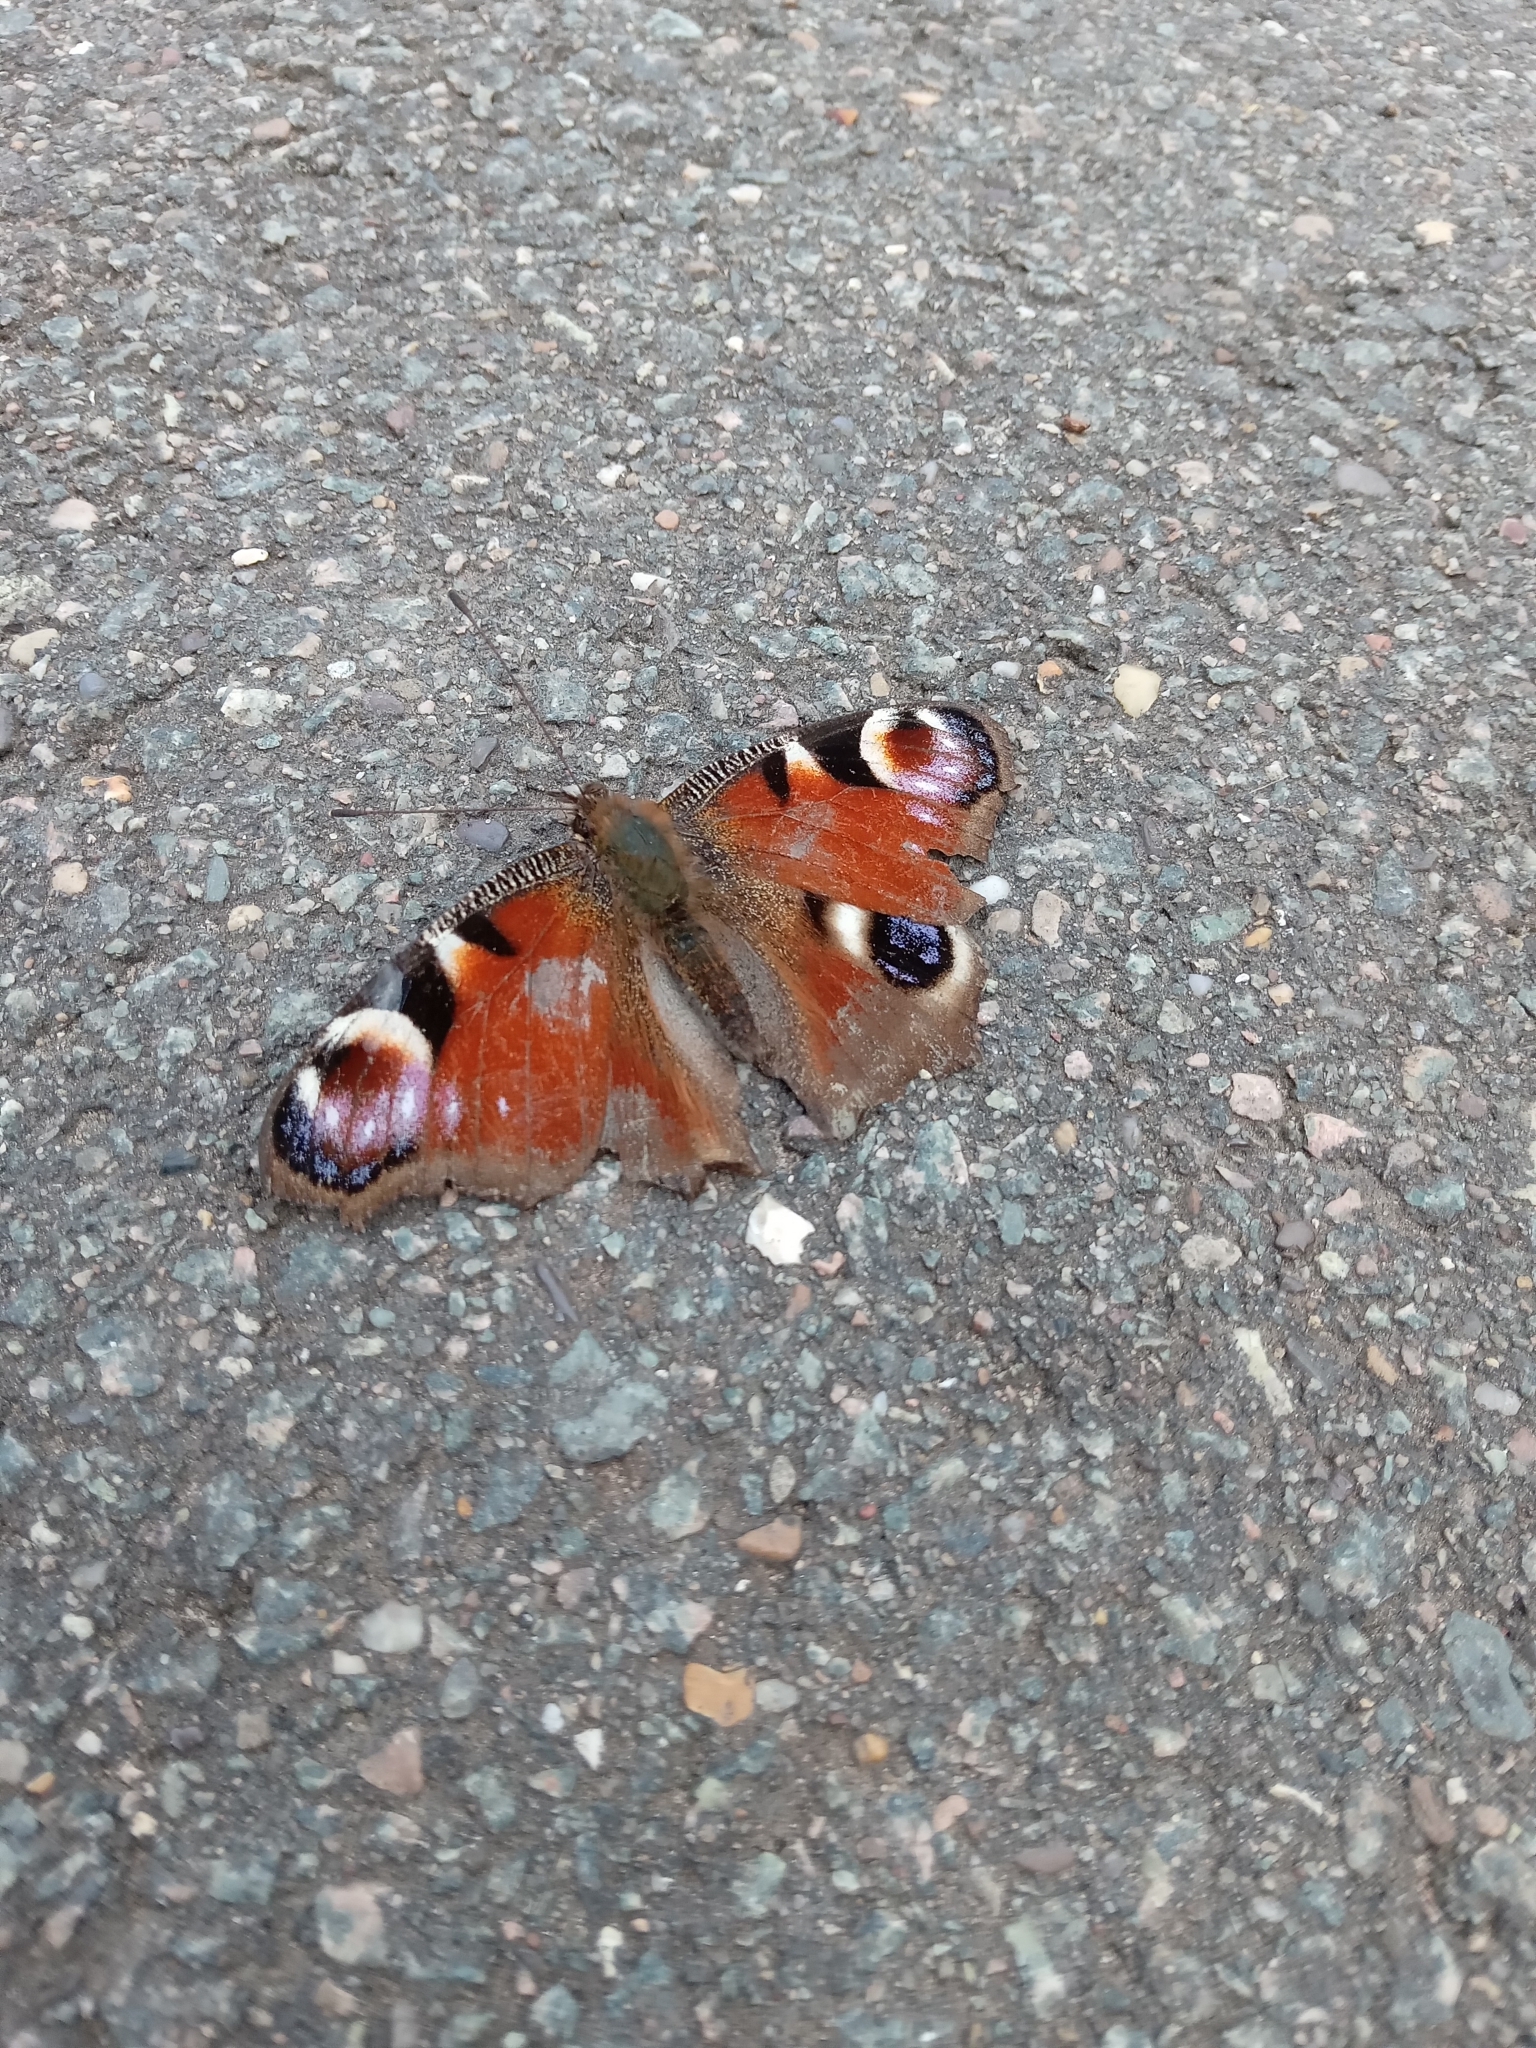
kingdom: Animalia
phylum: Arthropoda
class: Insecta
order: Lepidoptera
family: Nymphalidae
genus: Aglais
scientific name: Aglais io
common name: Peacock
